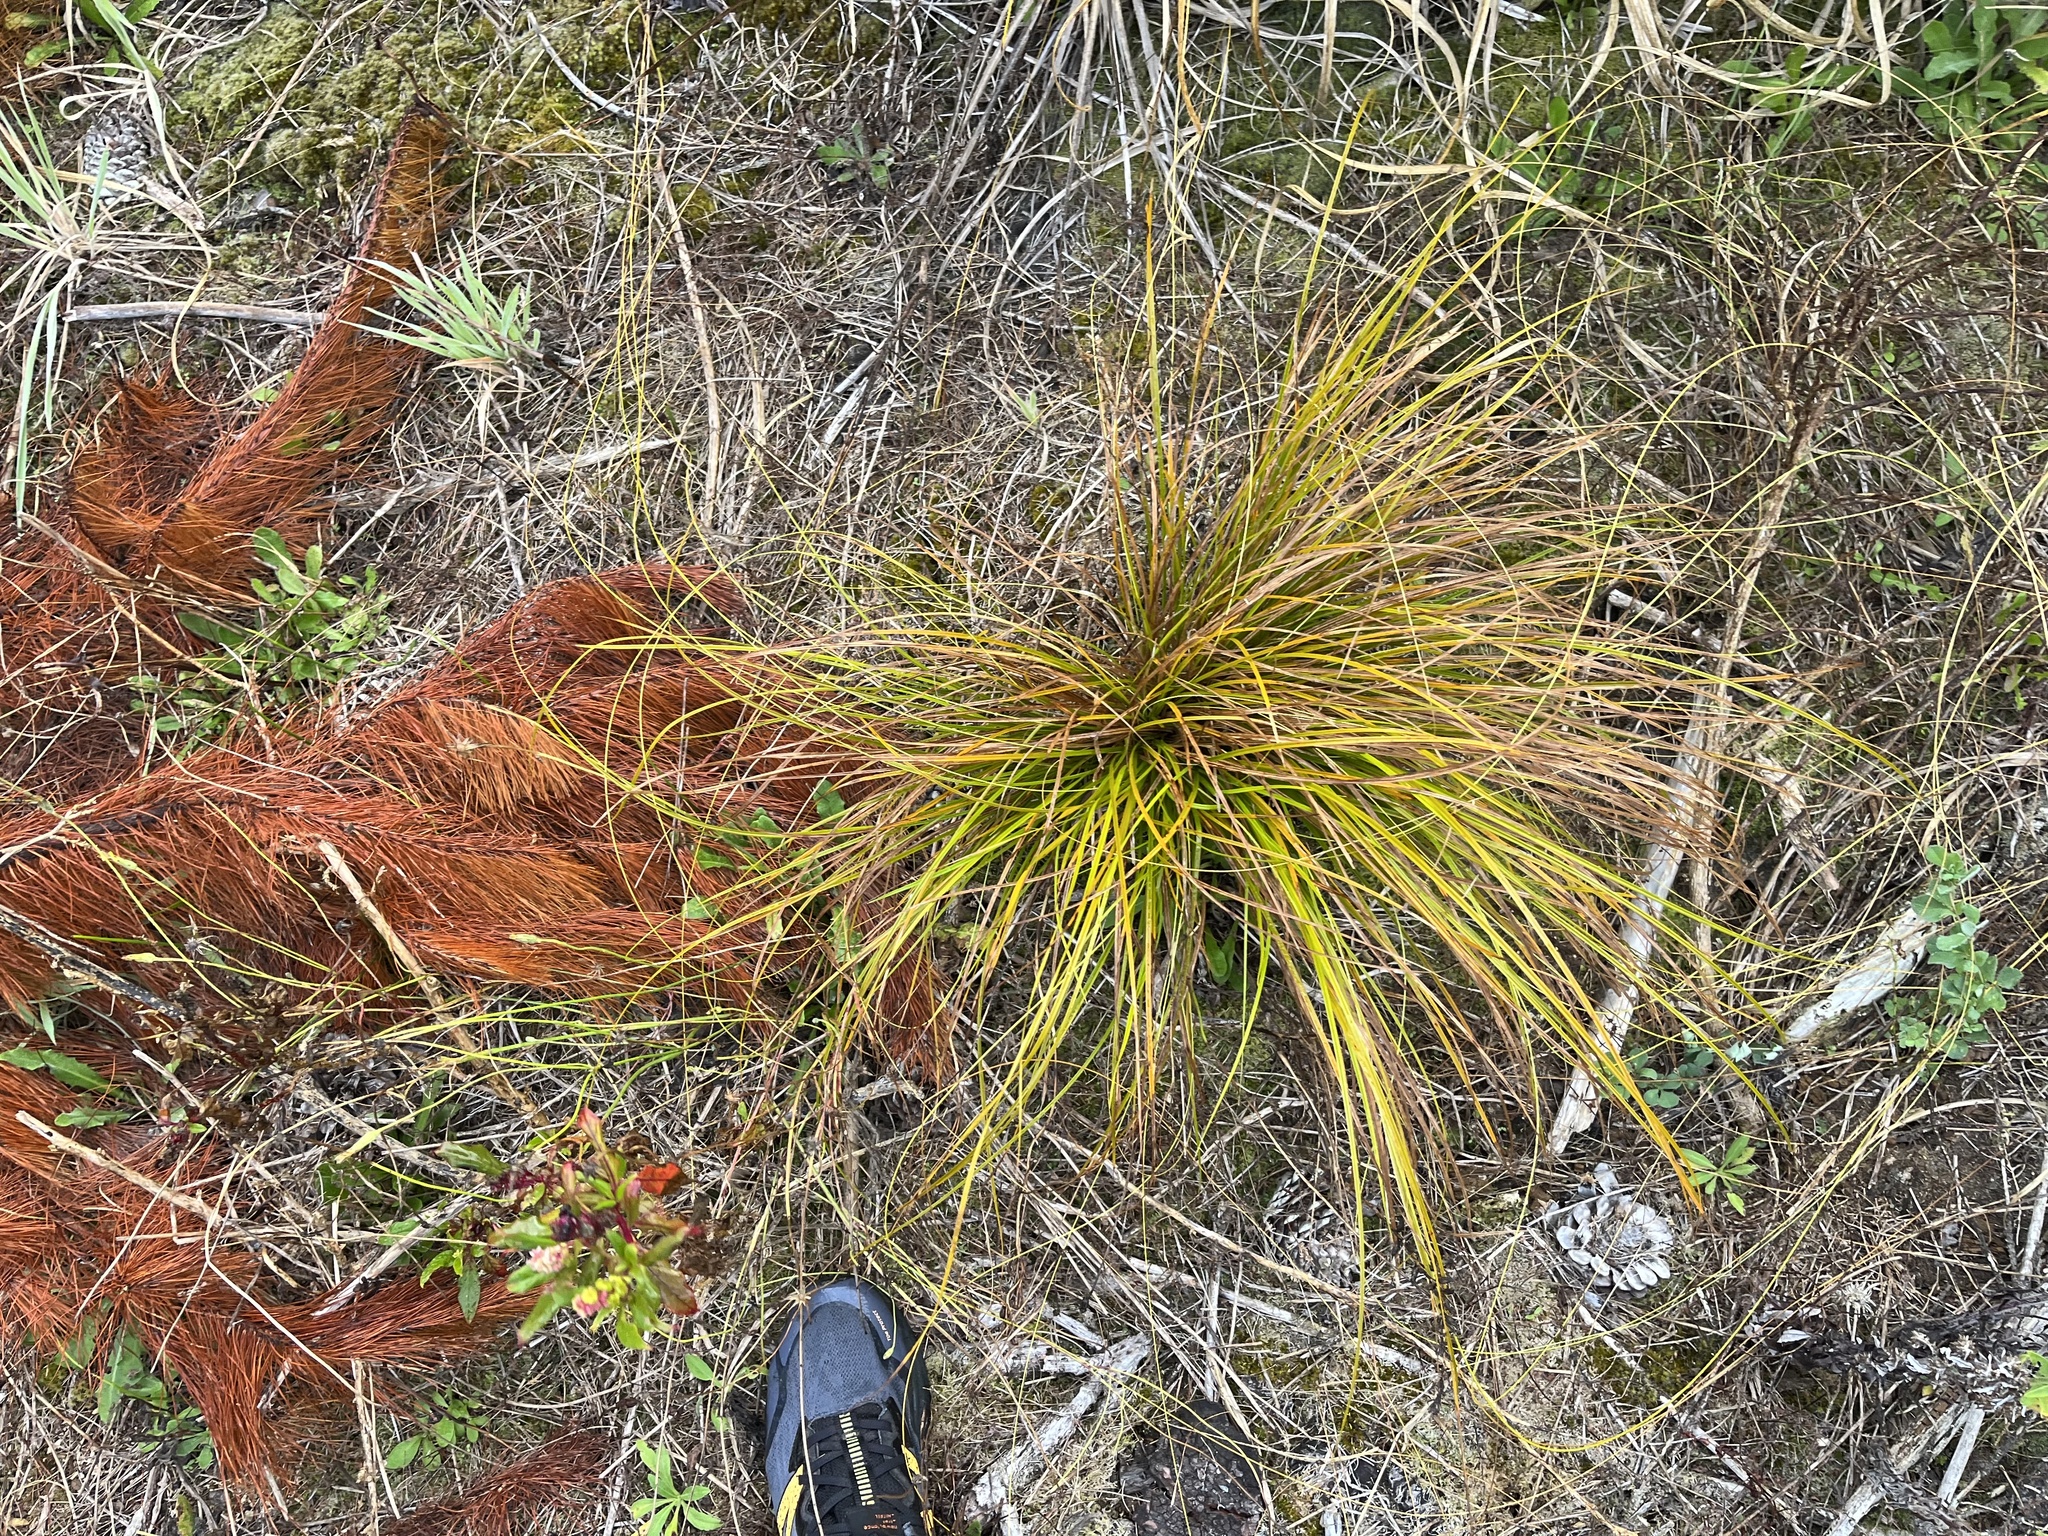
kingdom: Plantae
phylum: Tracheophyta
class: Liliopsida
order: Poales
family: Cyperaceae
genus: Carex
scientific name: Carex testacea
